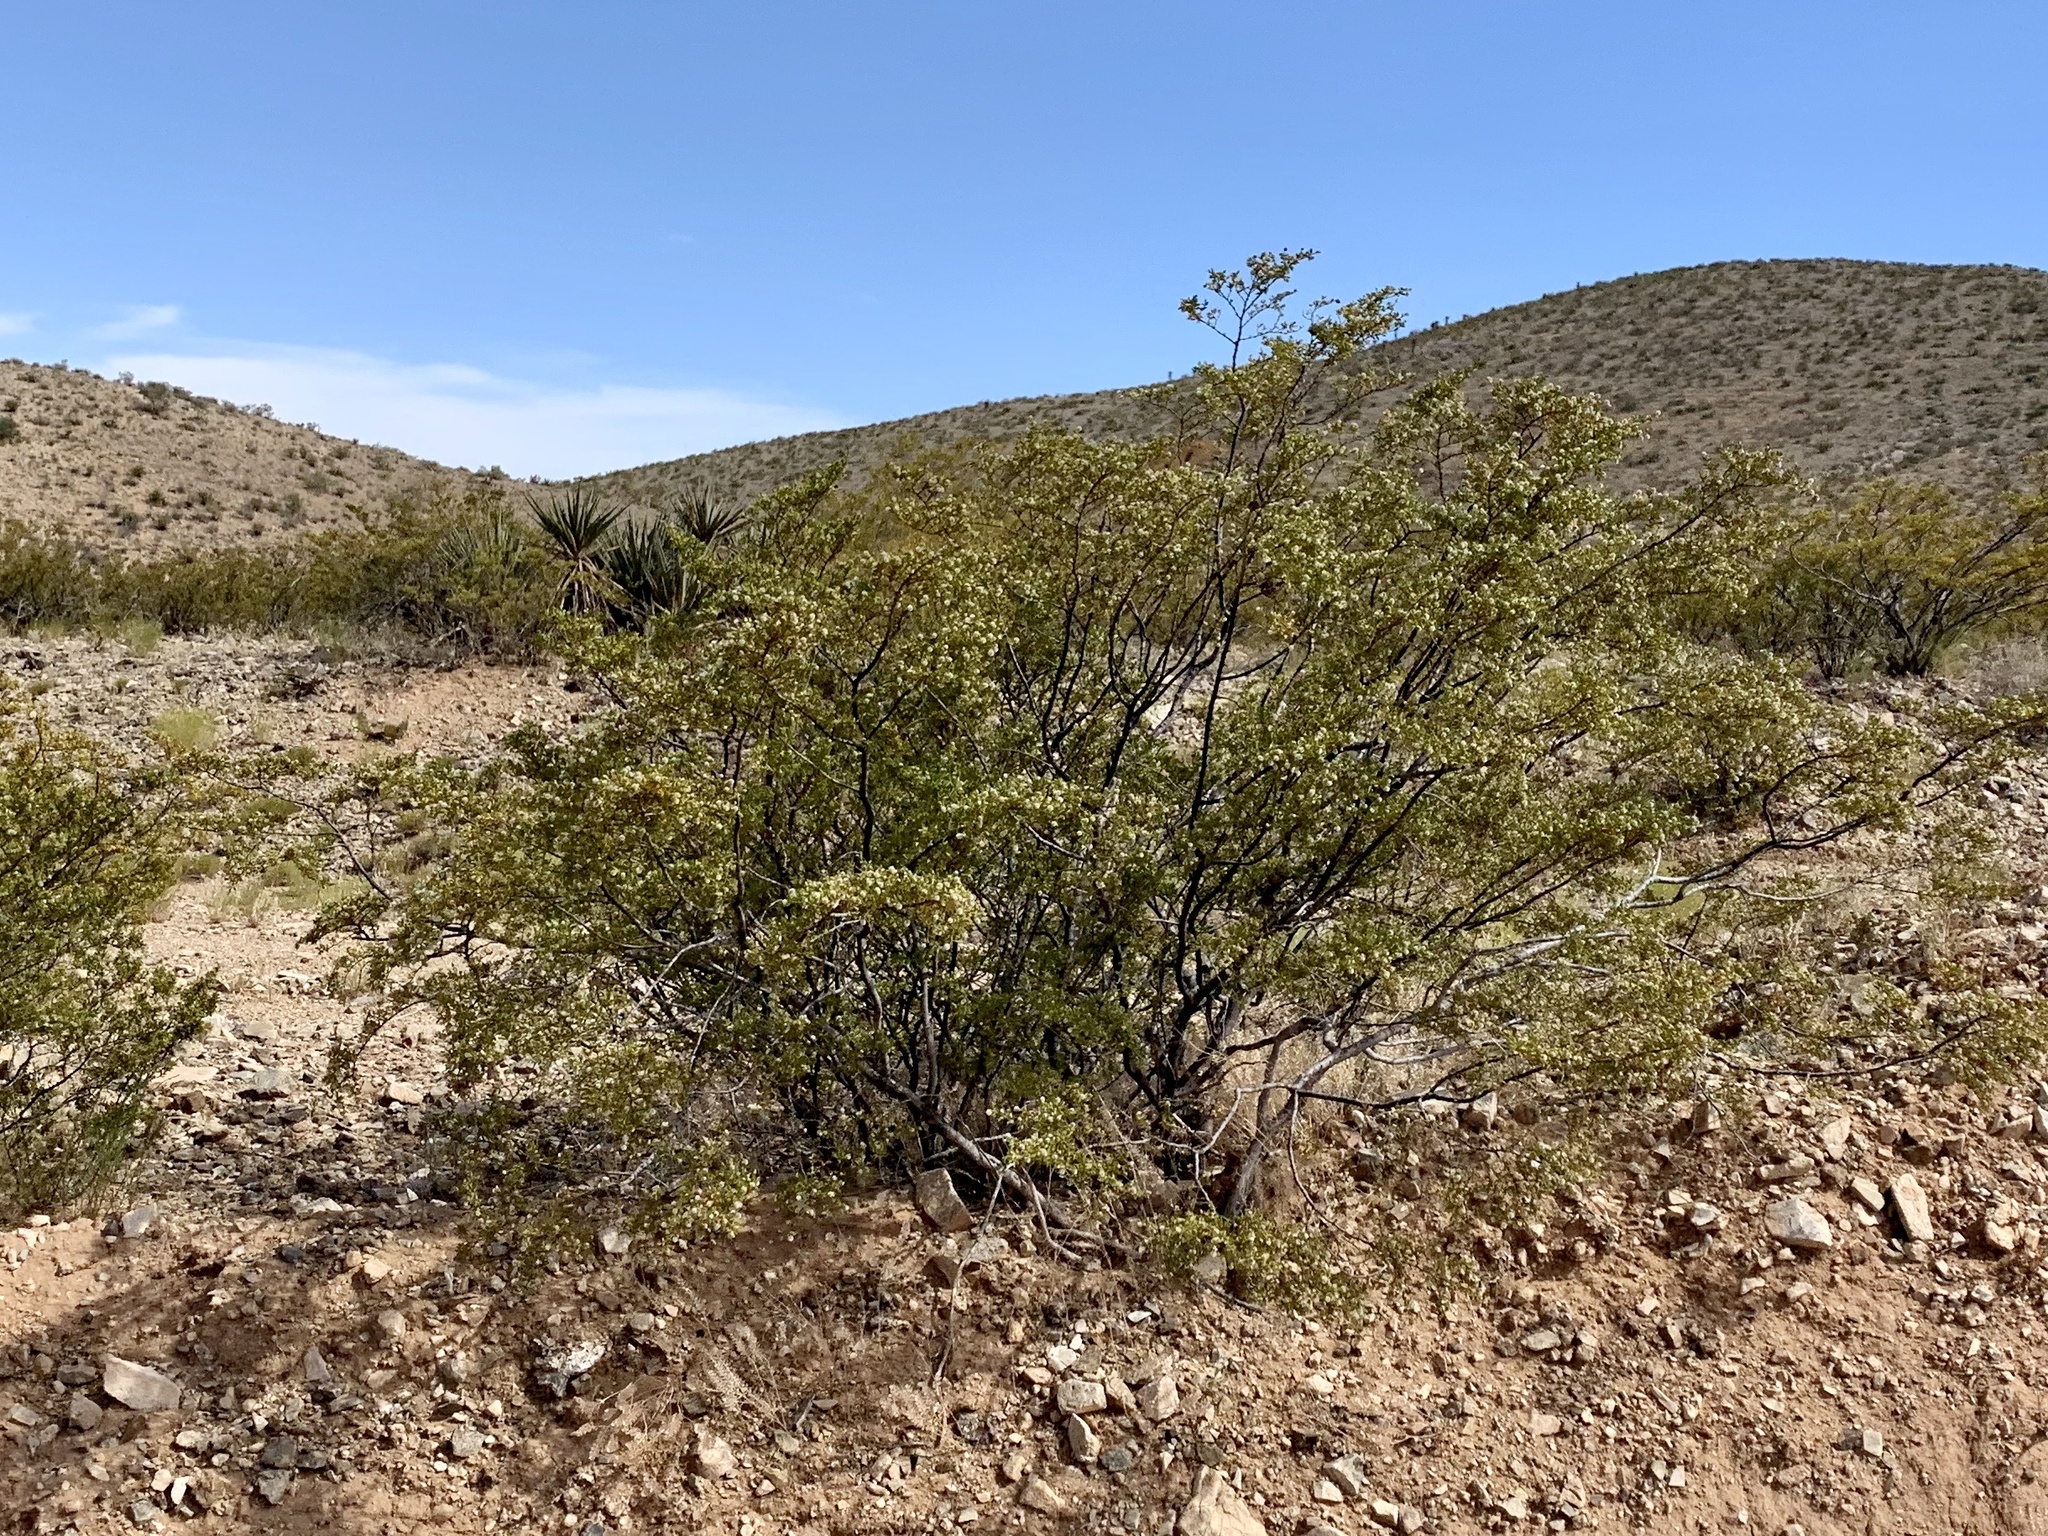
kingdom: Plantae
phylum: Tracheophyta
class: Magnoliopsida
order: Zygophyllales
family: Zygophyllaceae
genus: Larrea
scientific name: Larrea tridentata
